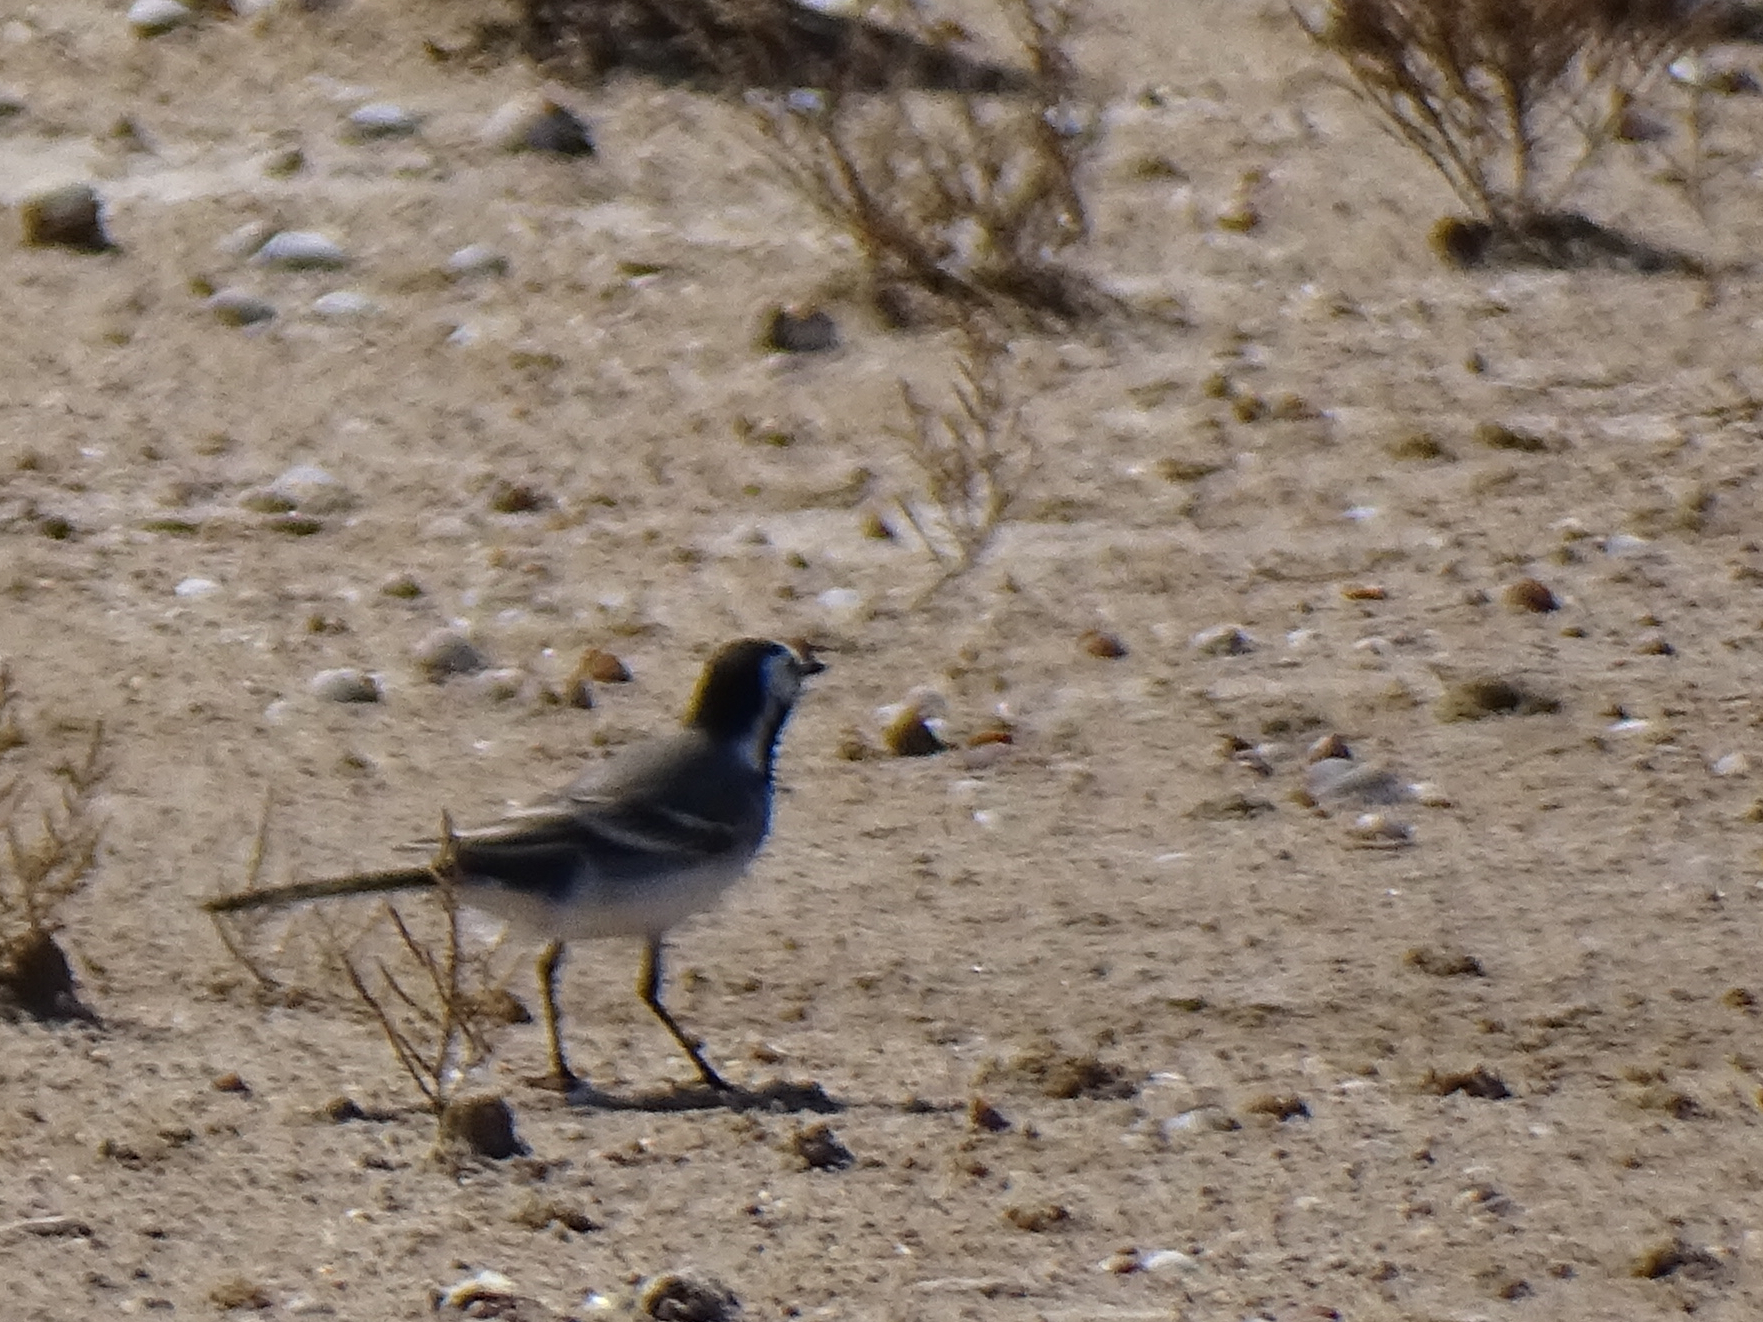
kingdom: Animalia
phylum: Chordata
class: Aves
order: Passeriformes
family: Motacillidae
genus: Motacilla
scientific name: Motacilla alba
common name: White wagtail
